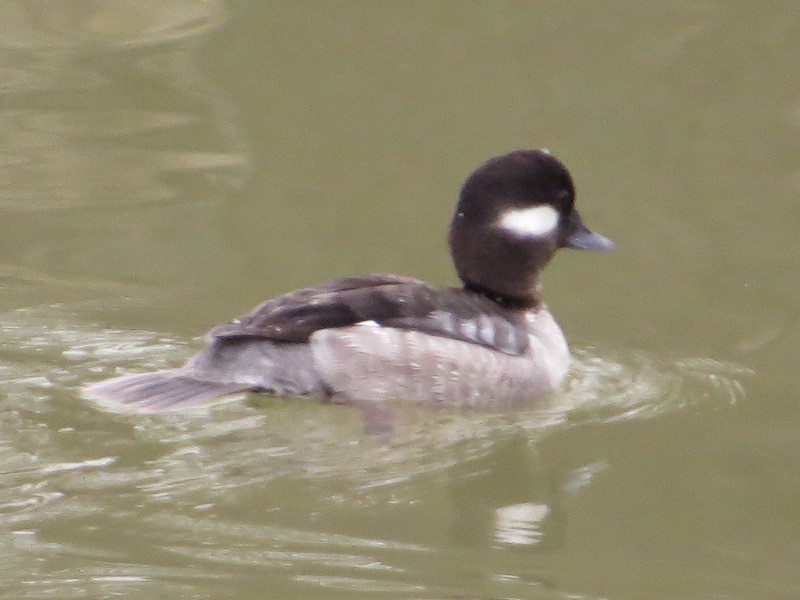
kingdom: Animalia
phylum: Chordata
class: Aves
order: Anseriformes
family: Anatidae
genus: Bucephala
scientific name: Bucephala albeola
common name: Bufflehead
